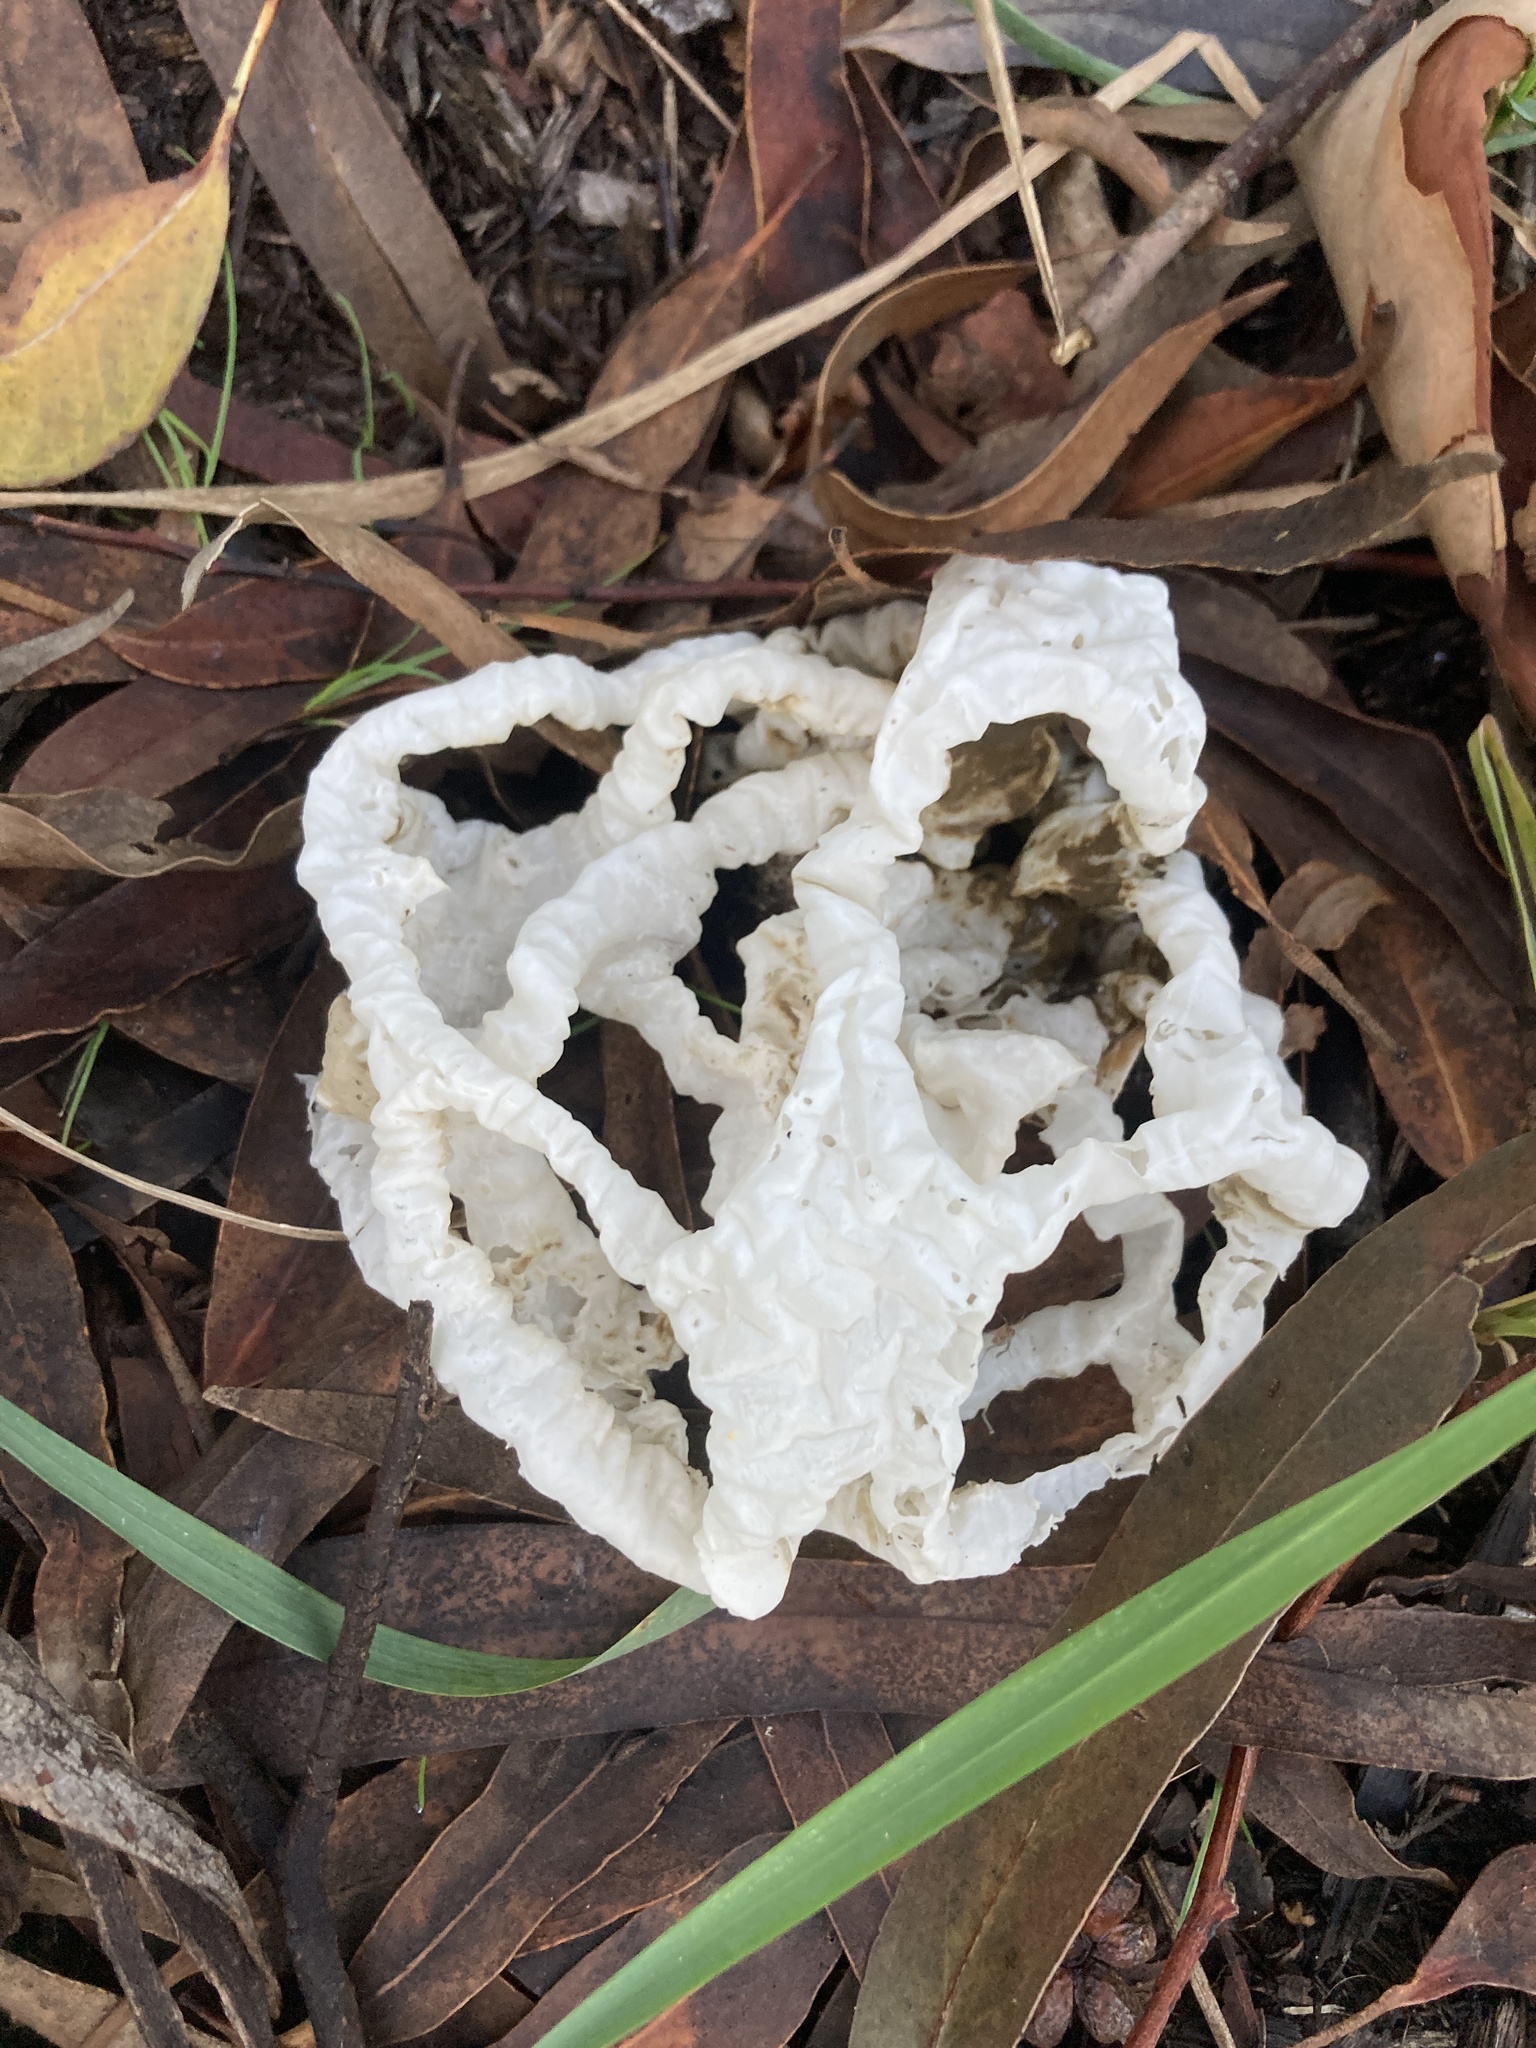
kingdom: Fungi
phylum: Basidiomycota
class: Agaricomycetes
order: Phallales
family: Phallaceae
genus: Ileodictyon
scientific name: Ileodictyon cibarium
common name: Basket fungus
